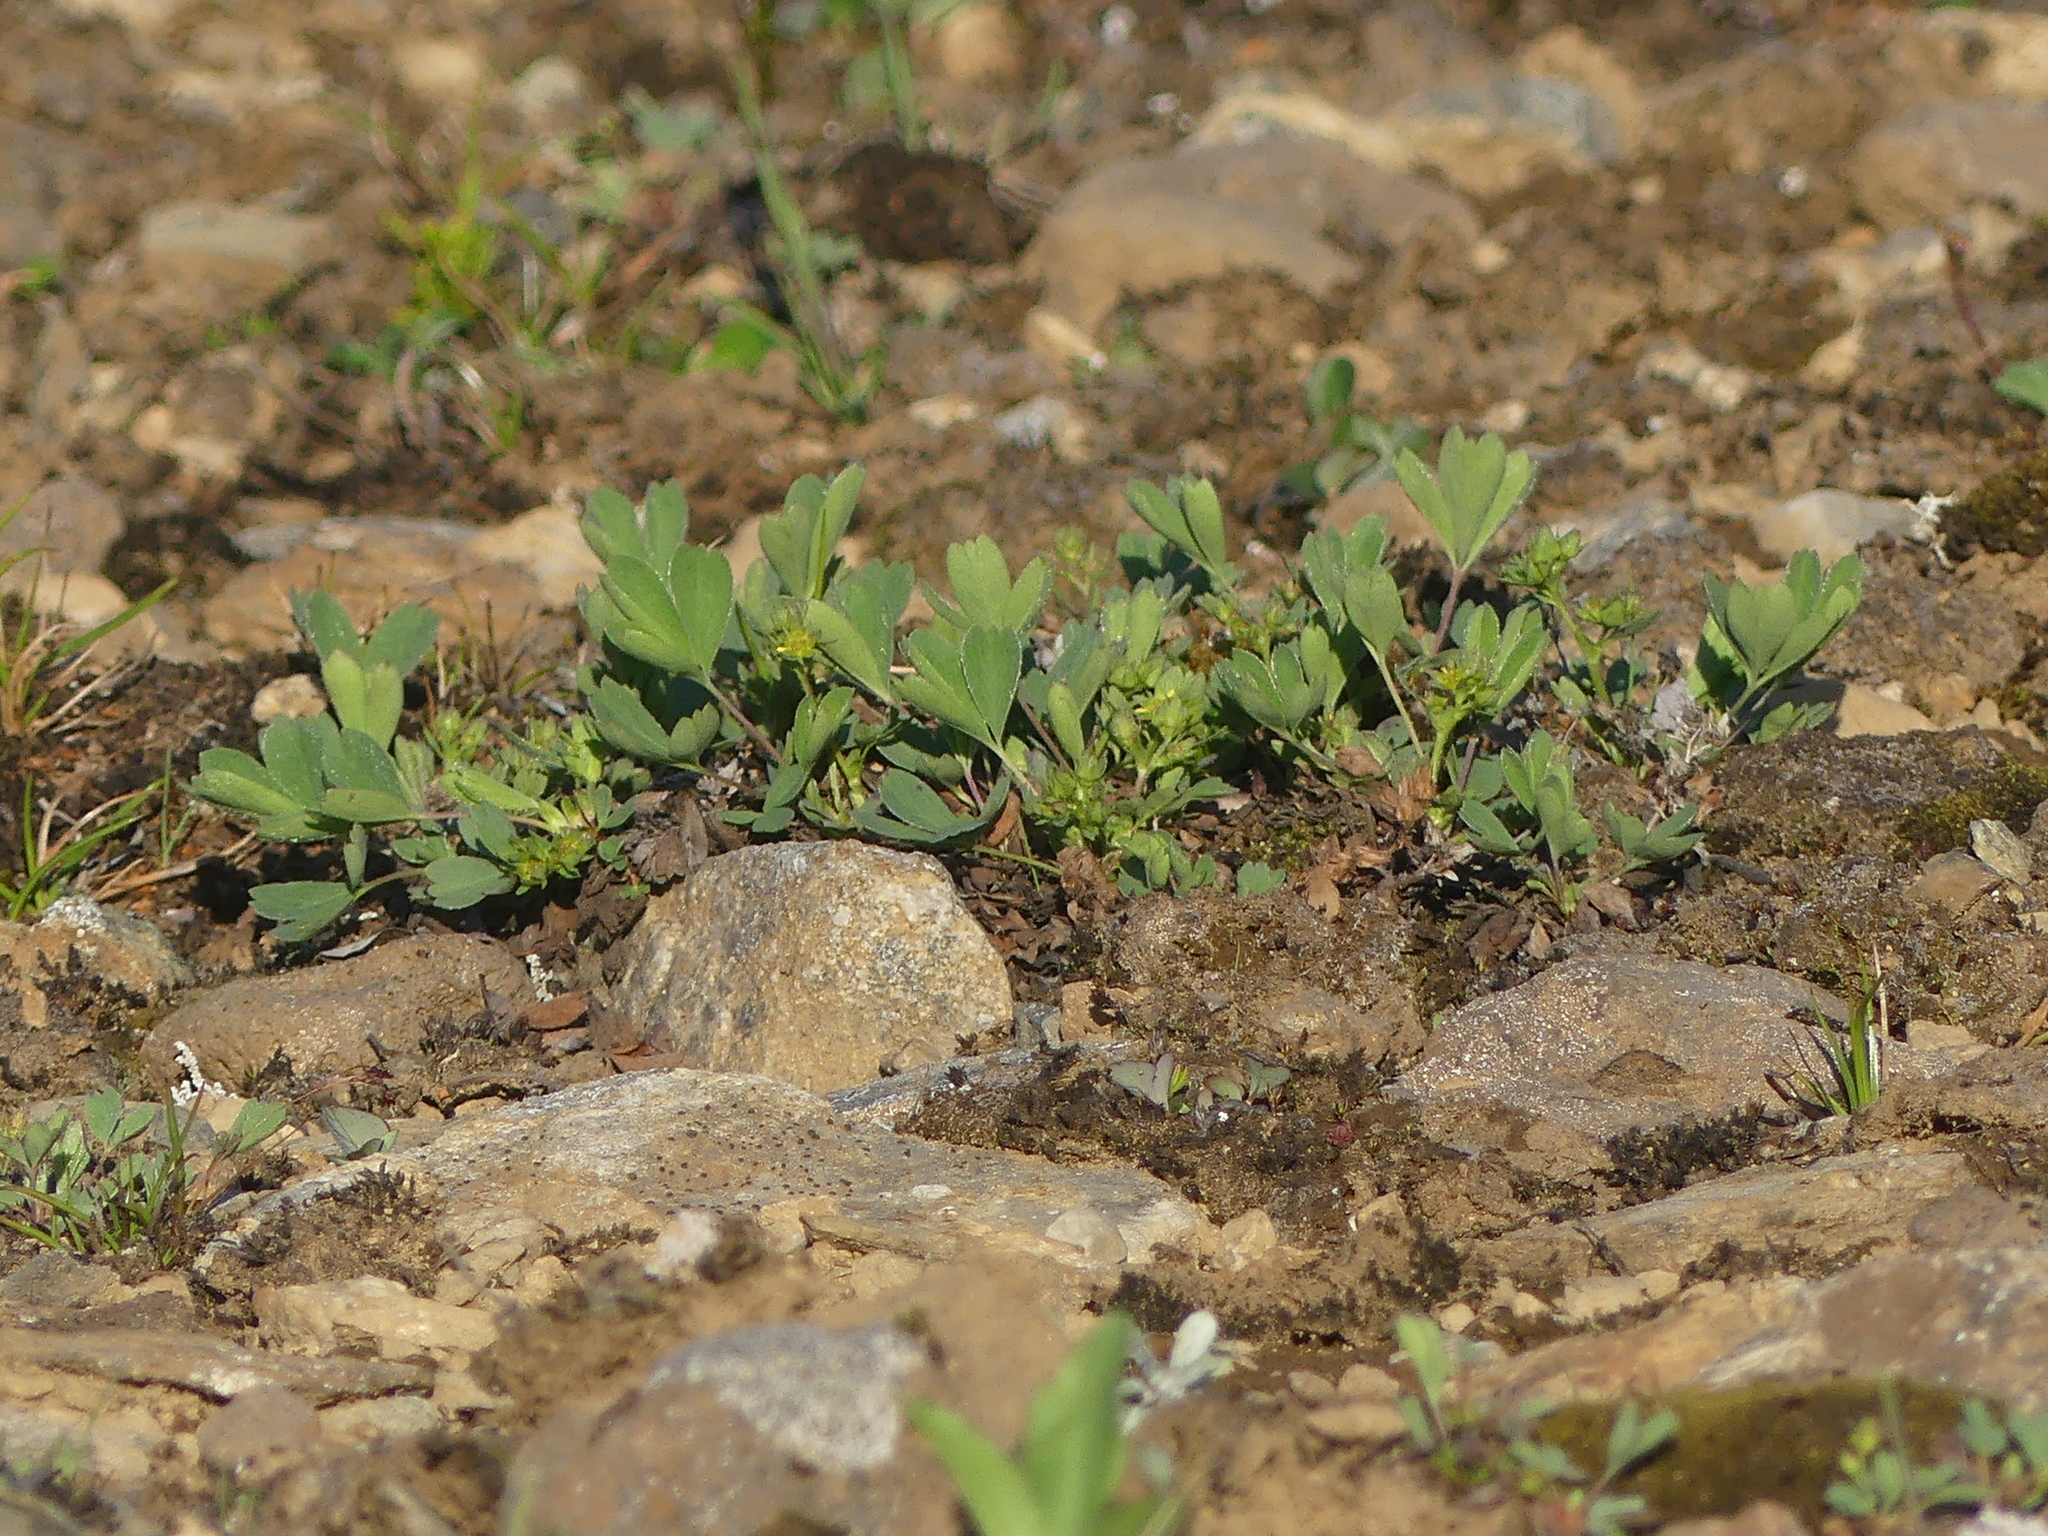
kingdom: Plantae
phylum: Tracheophyta
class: Magnoliopsida
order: Rosales
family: Rosaceae
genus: Sibbaldia
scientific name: Sibbaldia procumbens
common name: Creeping sibbaldia
